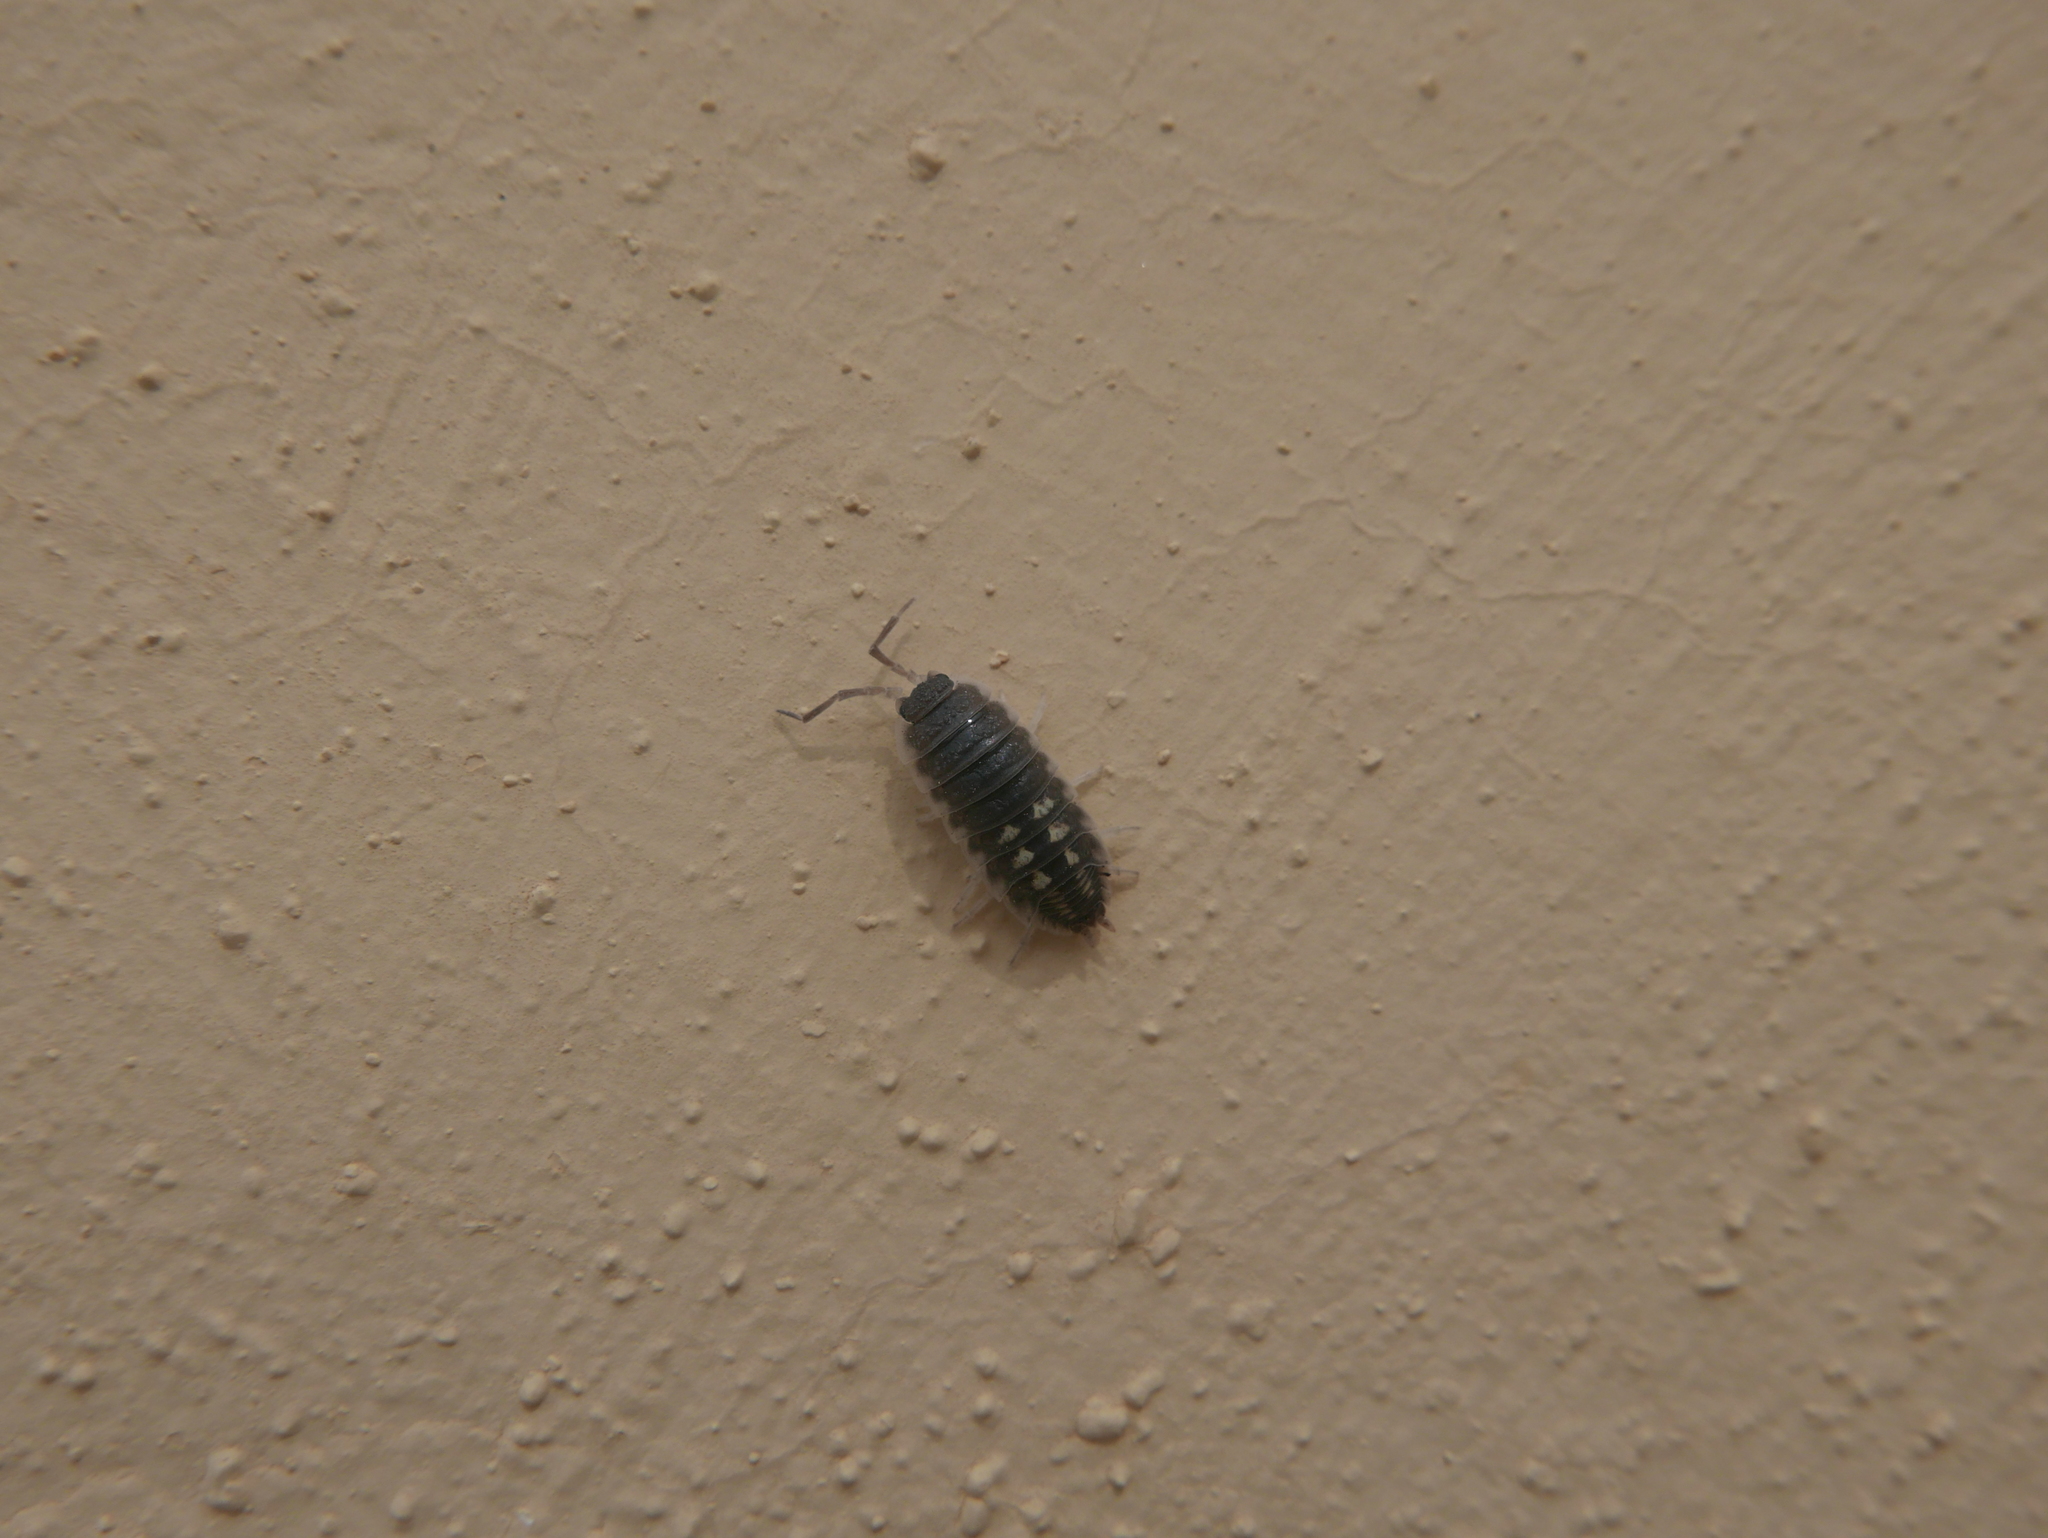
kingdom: Animalia
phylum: Arthropoda
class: Malacostraca
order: Isopoda
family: Porcellionidae
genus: Porcellio
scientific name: Porcellio ornatus
